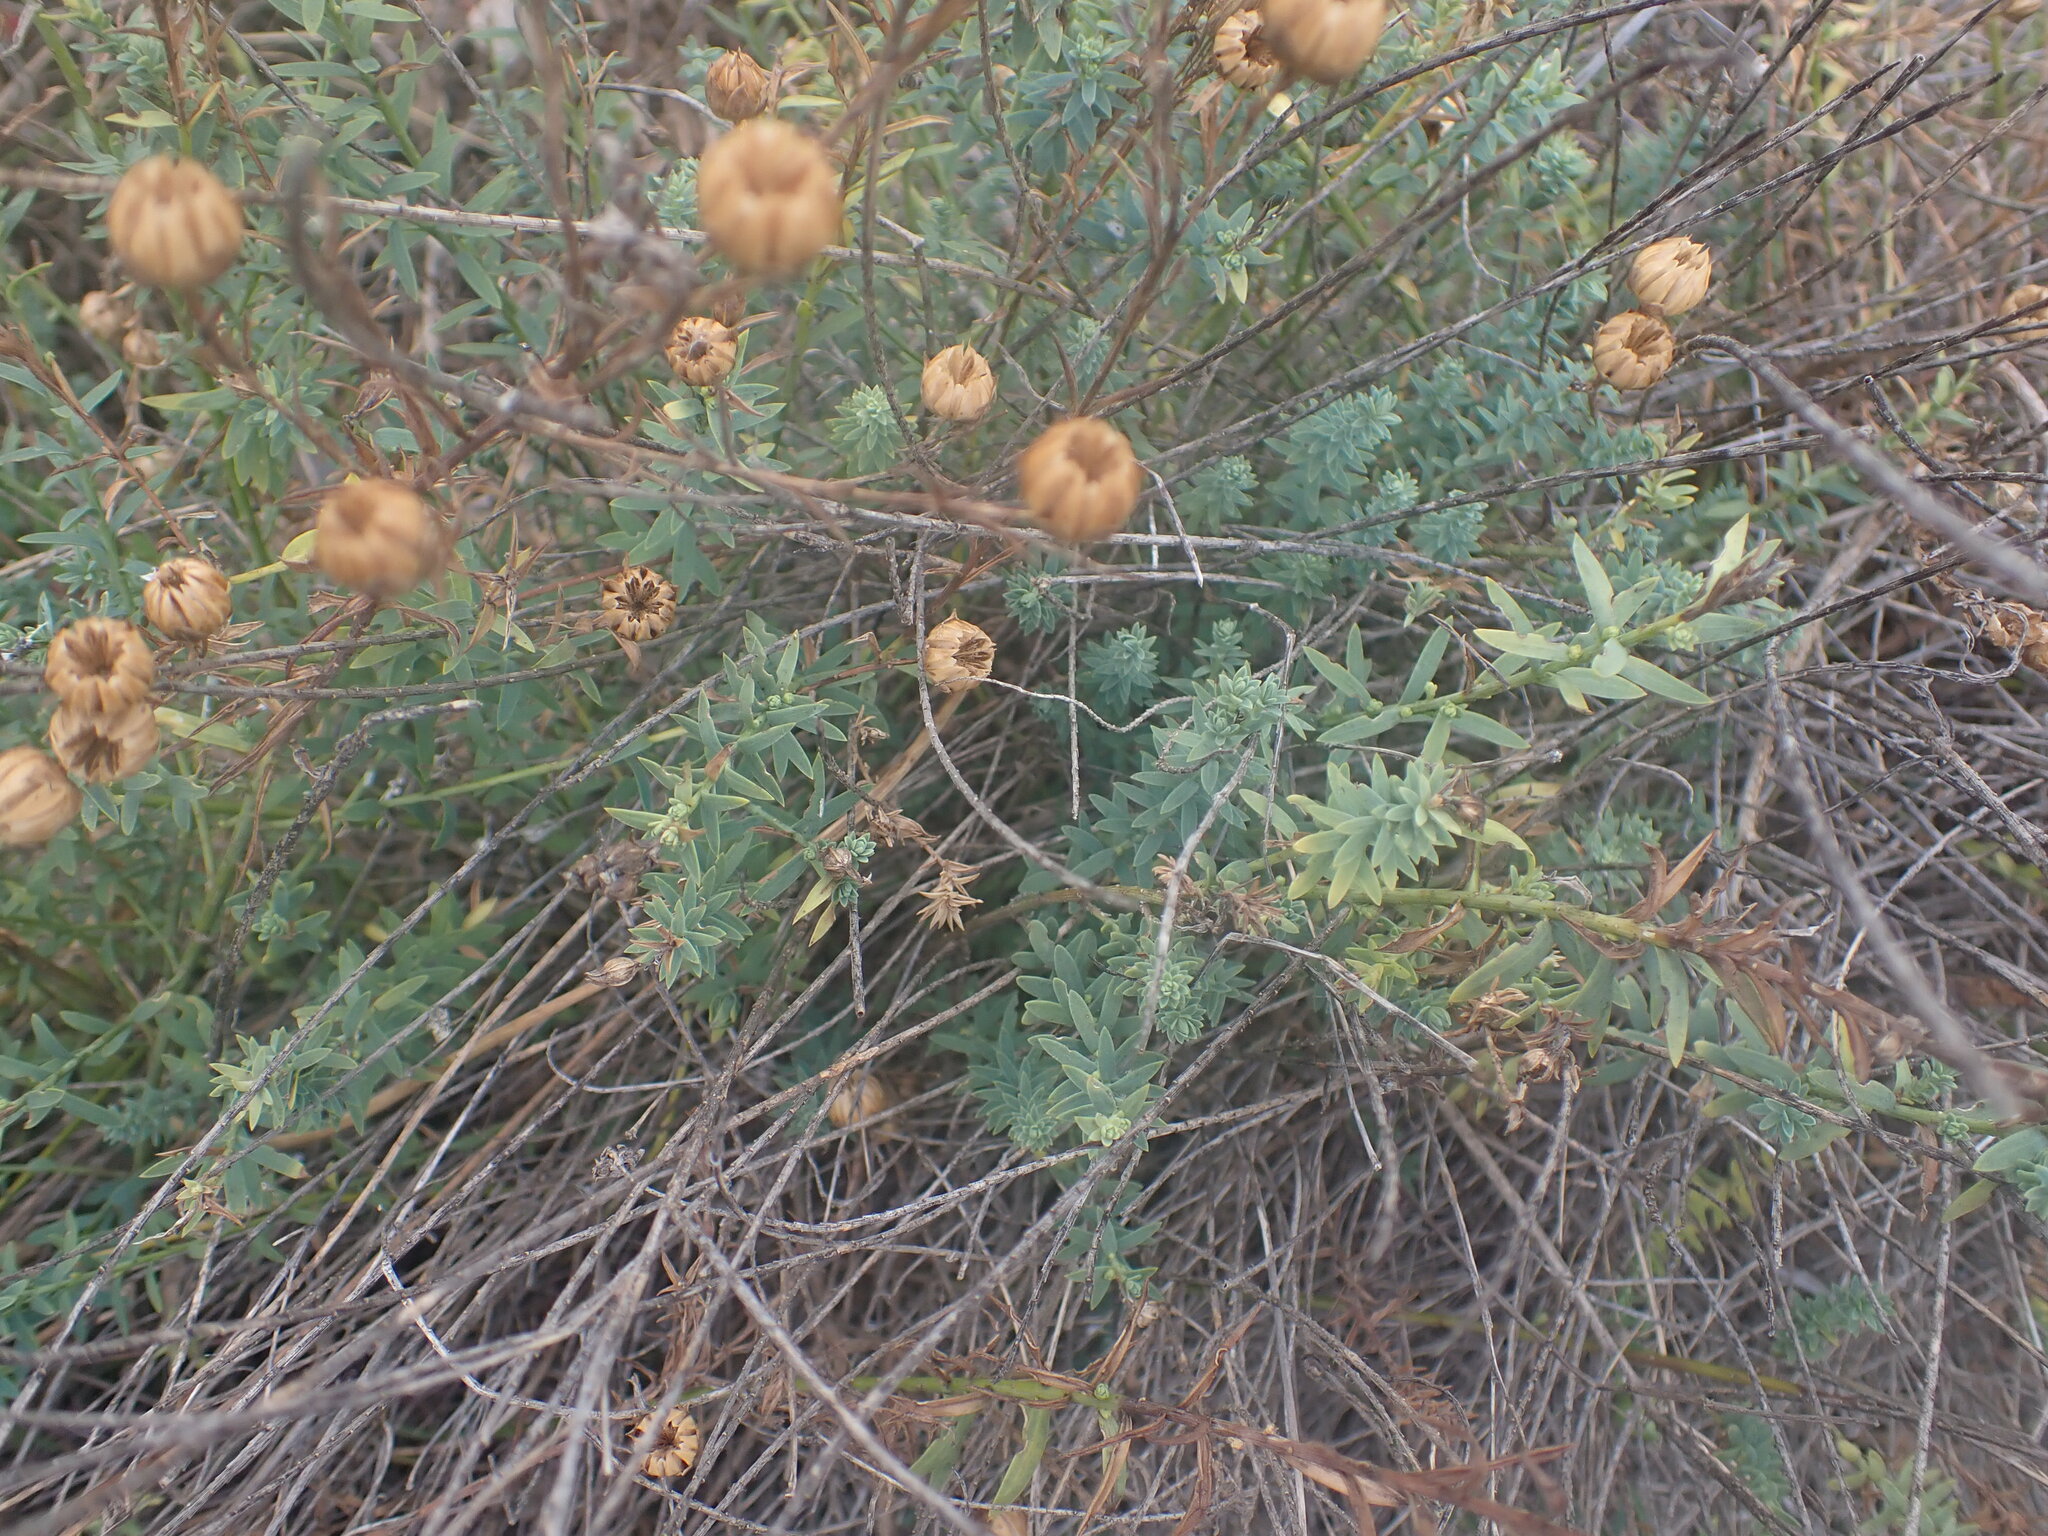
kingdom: Plantae
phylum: Tracheophyta
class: Magnoliopsida
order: Malpighiales
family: Linaceae
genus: Linum
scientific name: Linum monogynum
